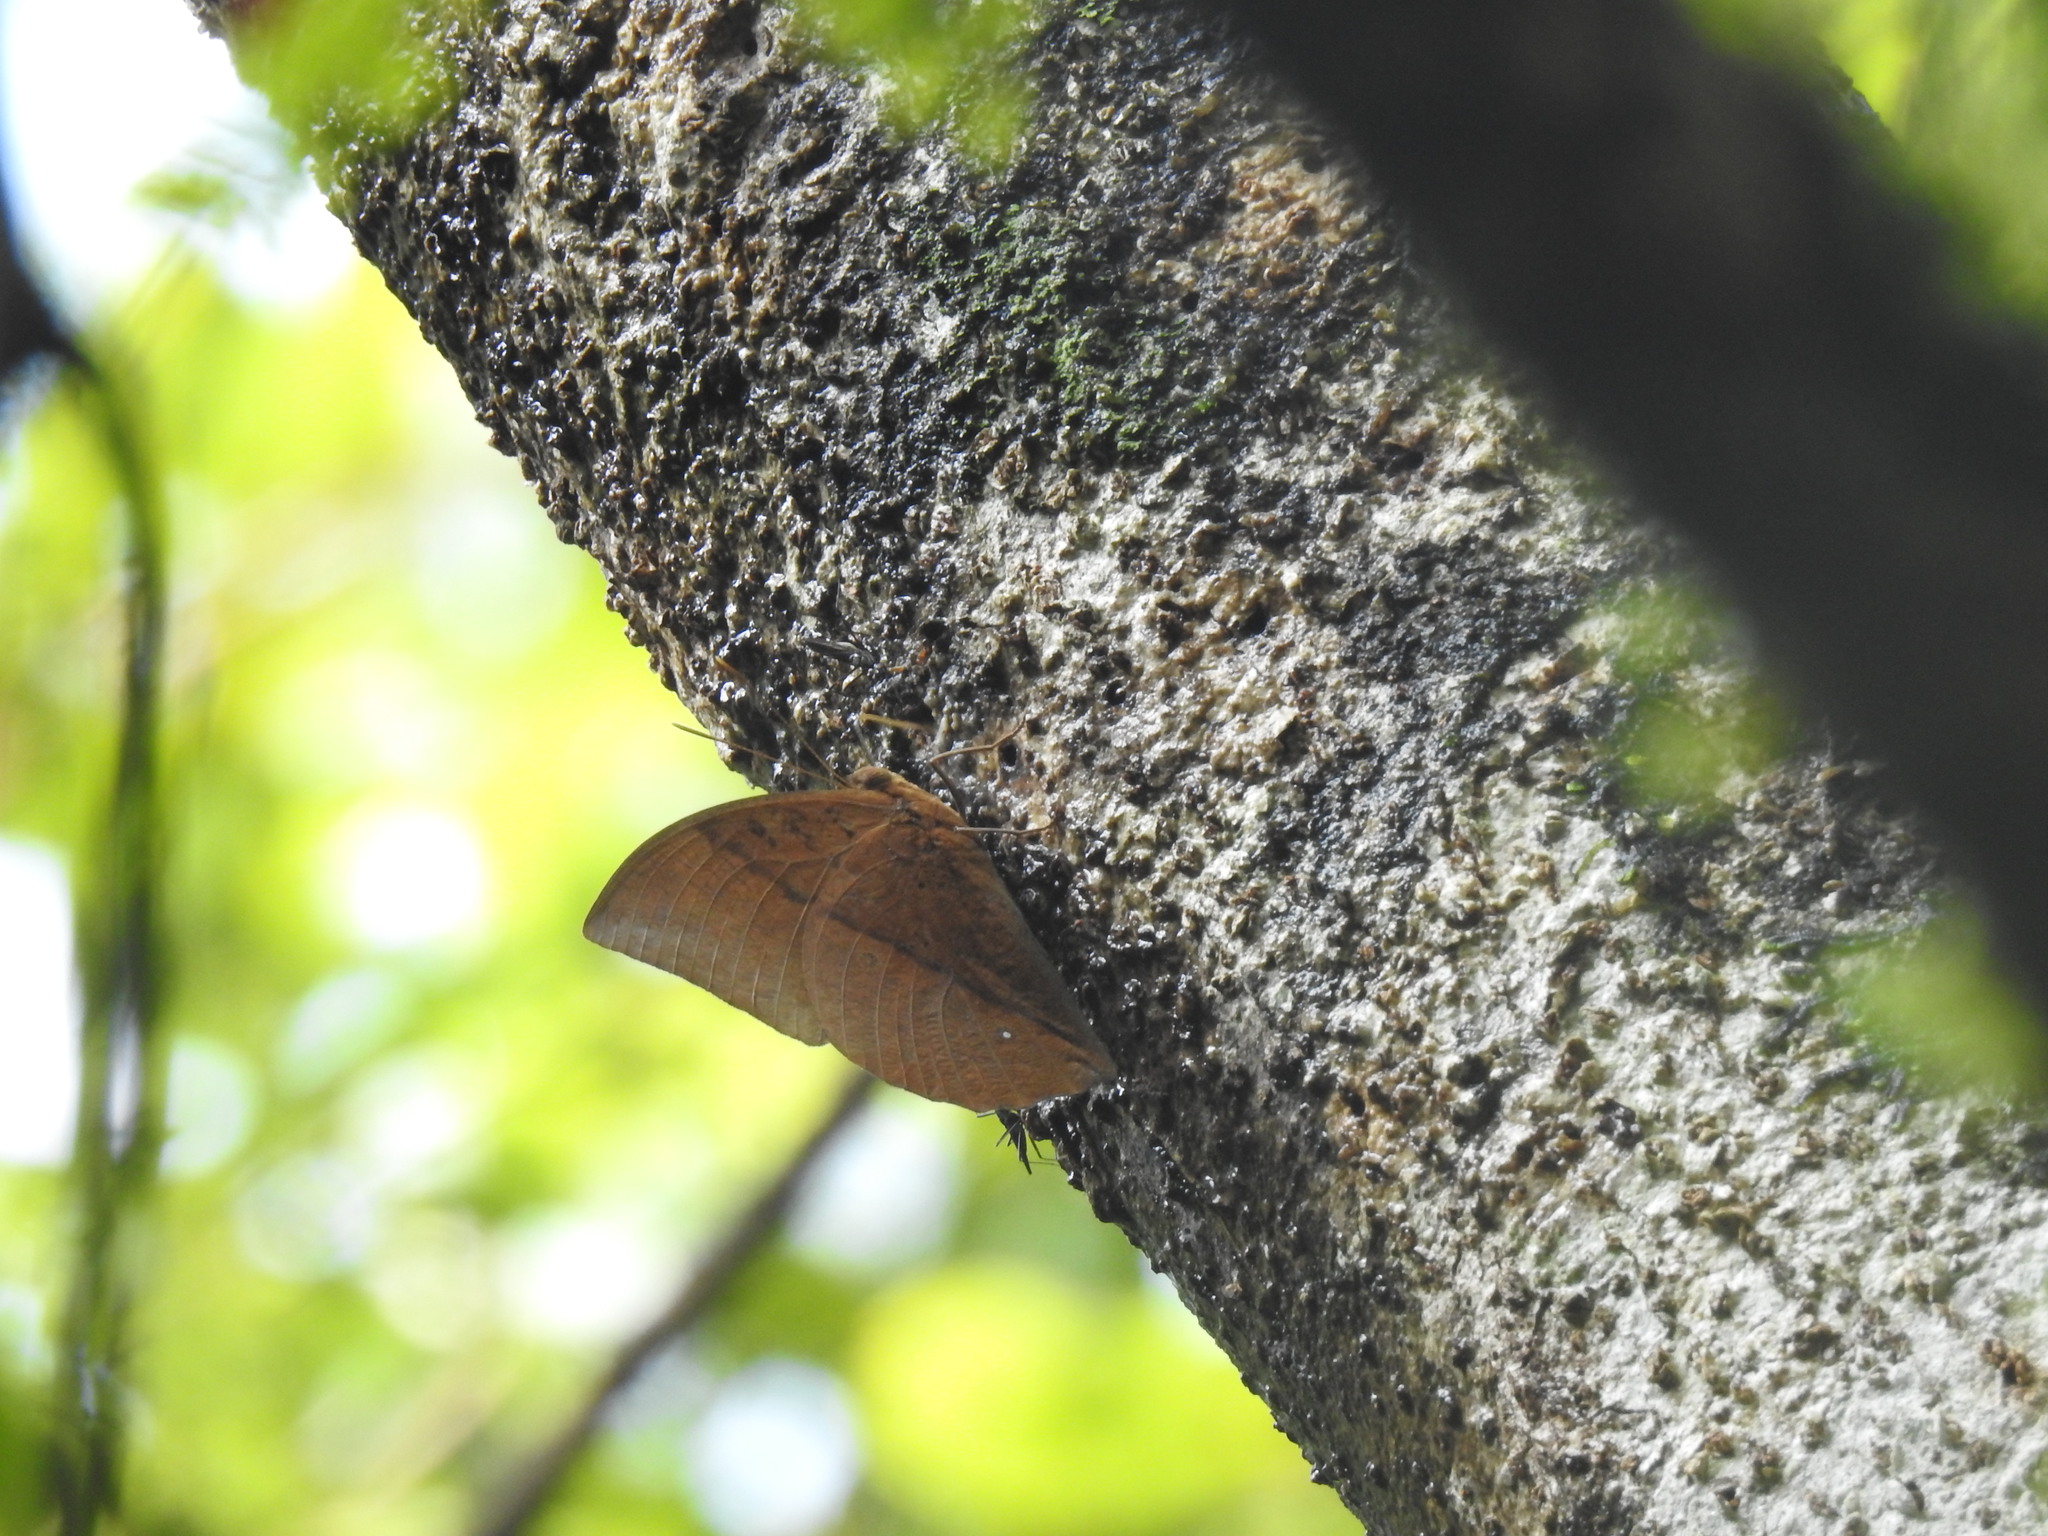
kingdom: Animalia
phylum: Arthropoda
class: Insecta
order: Lepidoptera
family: Nymphalidae
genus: Discophora
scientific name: Discophora lepida
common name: Southern duffer
